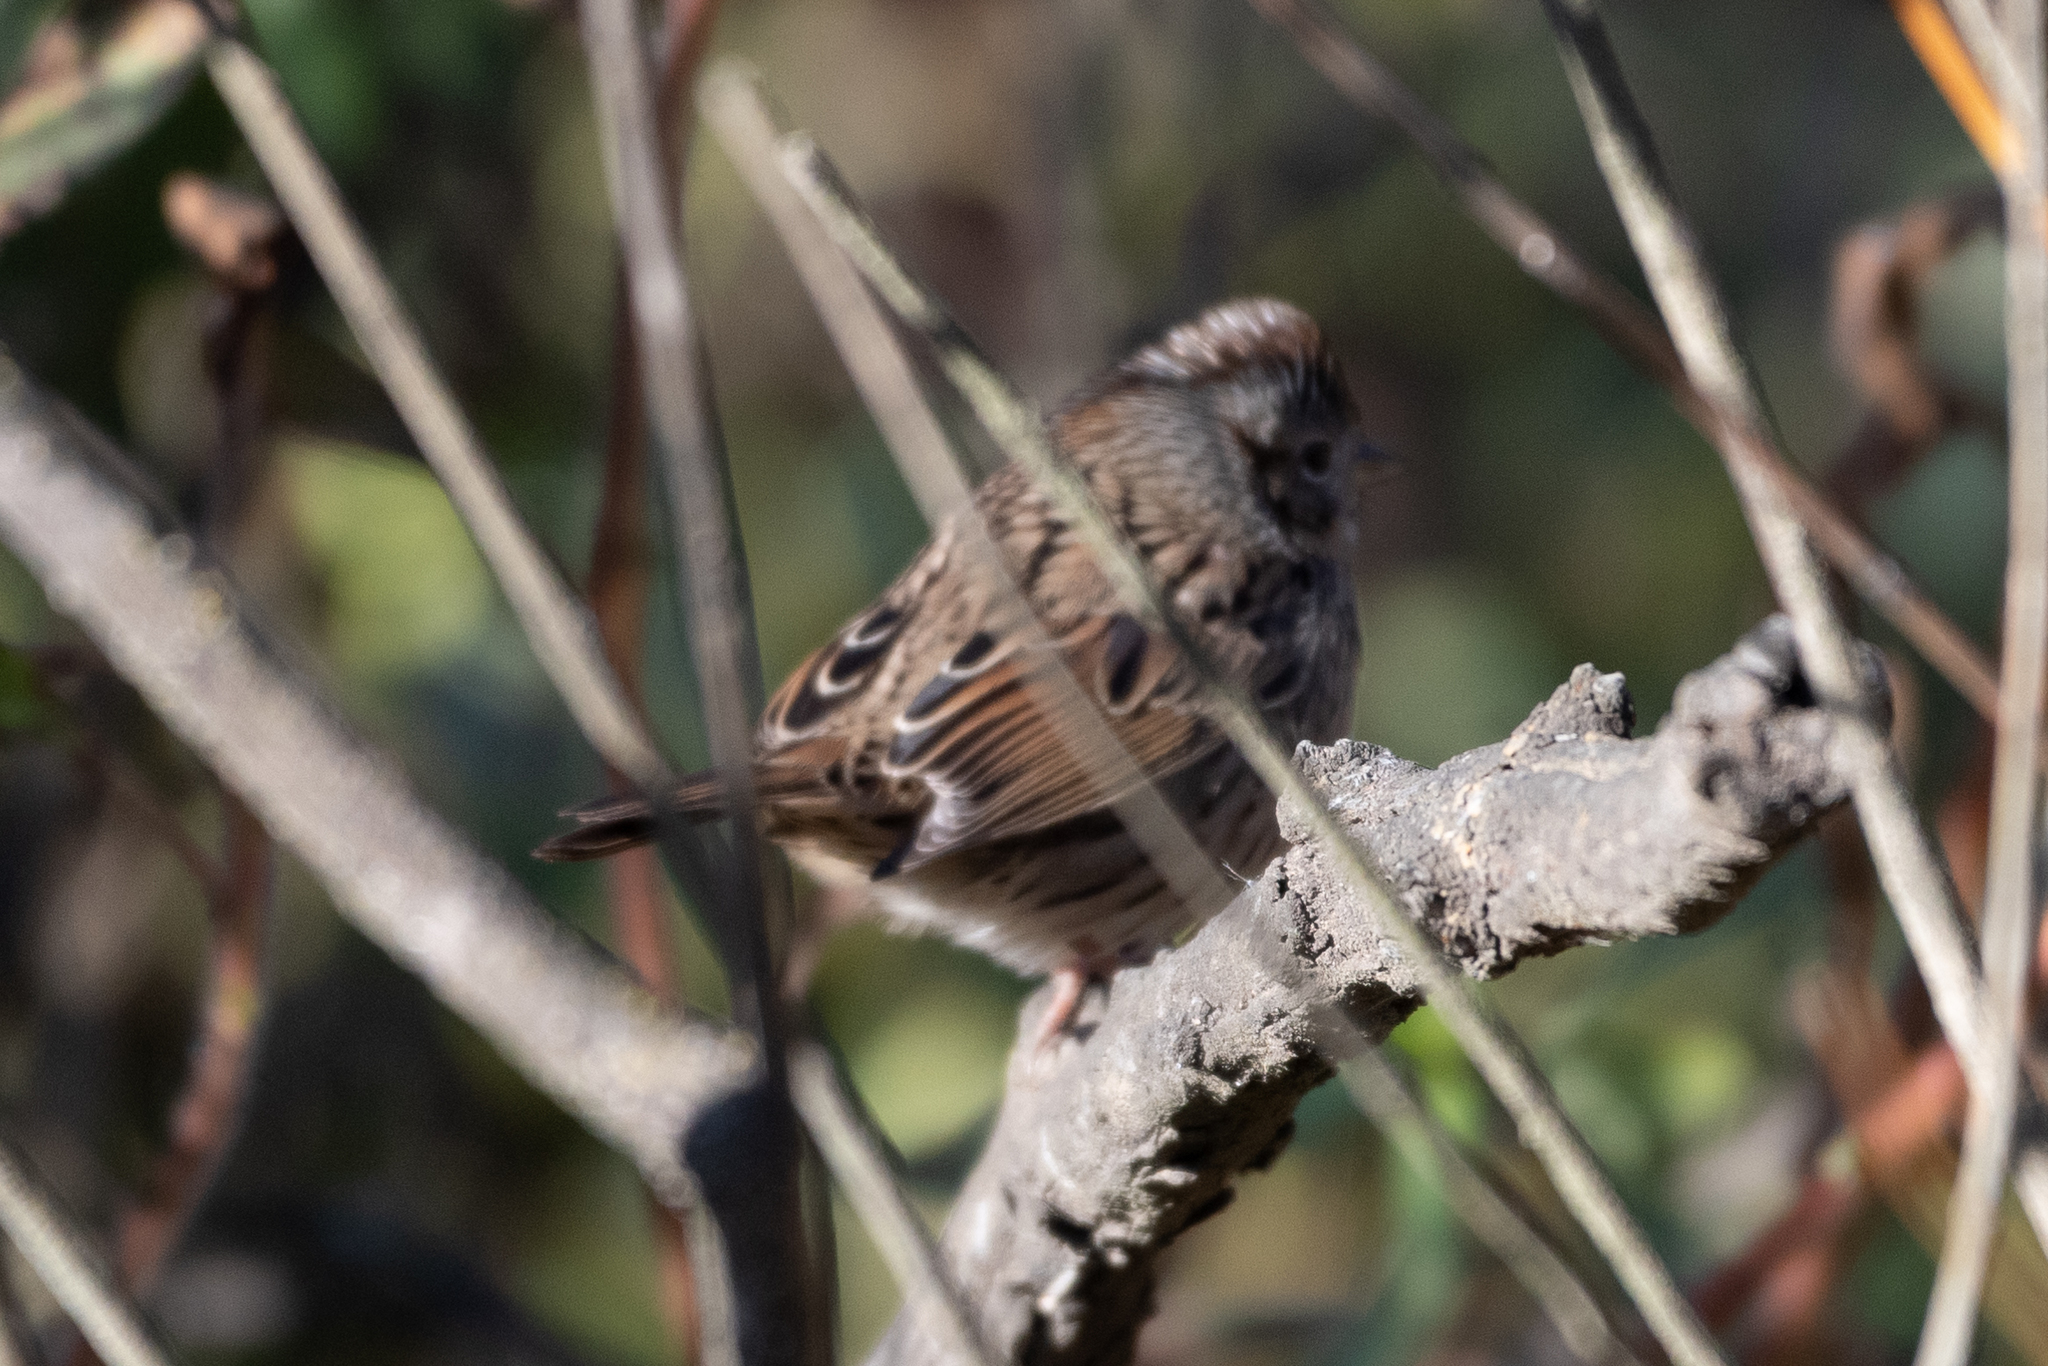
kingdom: Animalia
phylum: Chordata
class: Aves
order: Passeriformes
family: Passerellidae
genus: Melospiza
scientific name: Melospiza lincolnii
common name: Lincoln's sparrow
